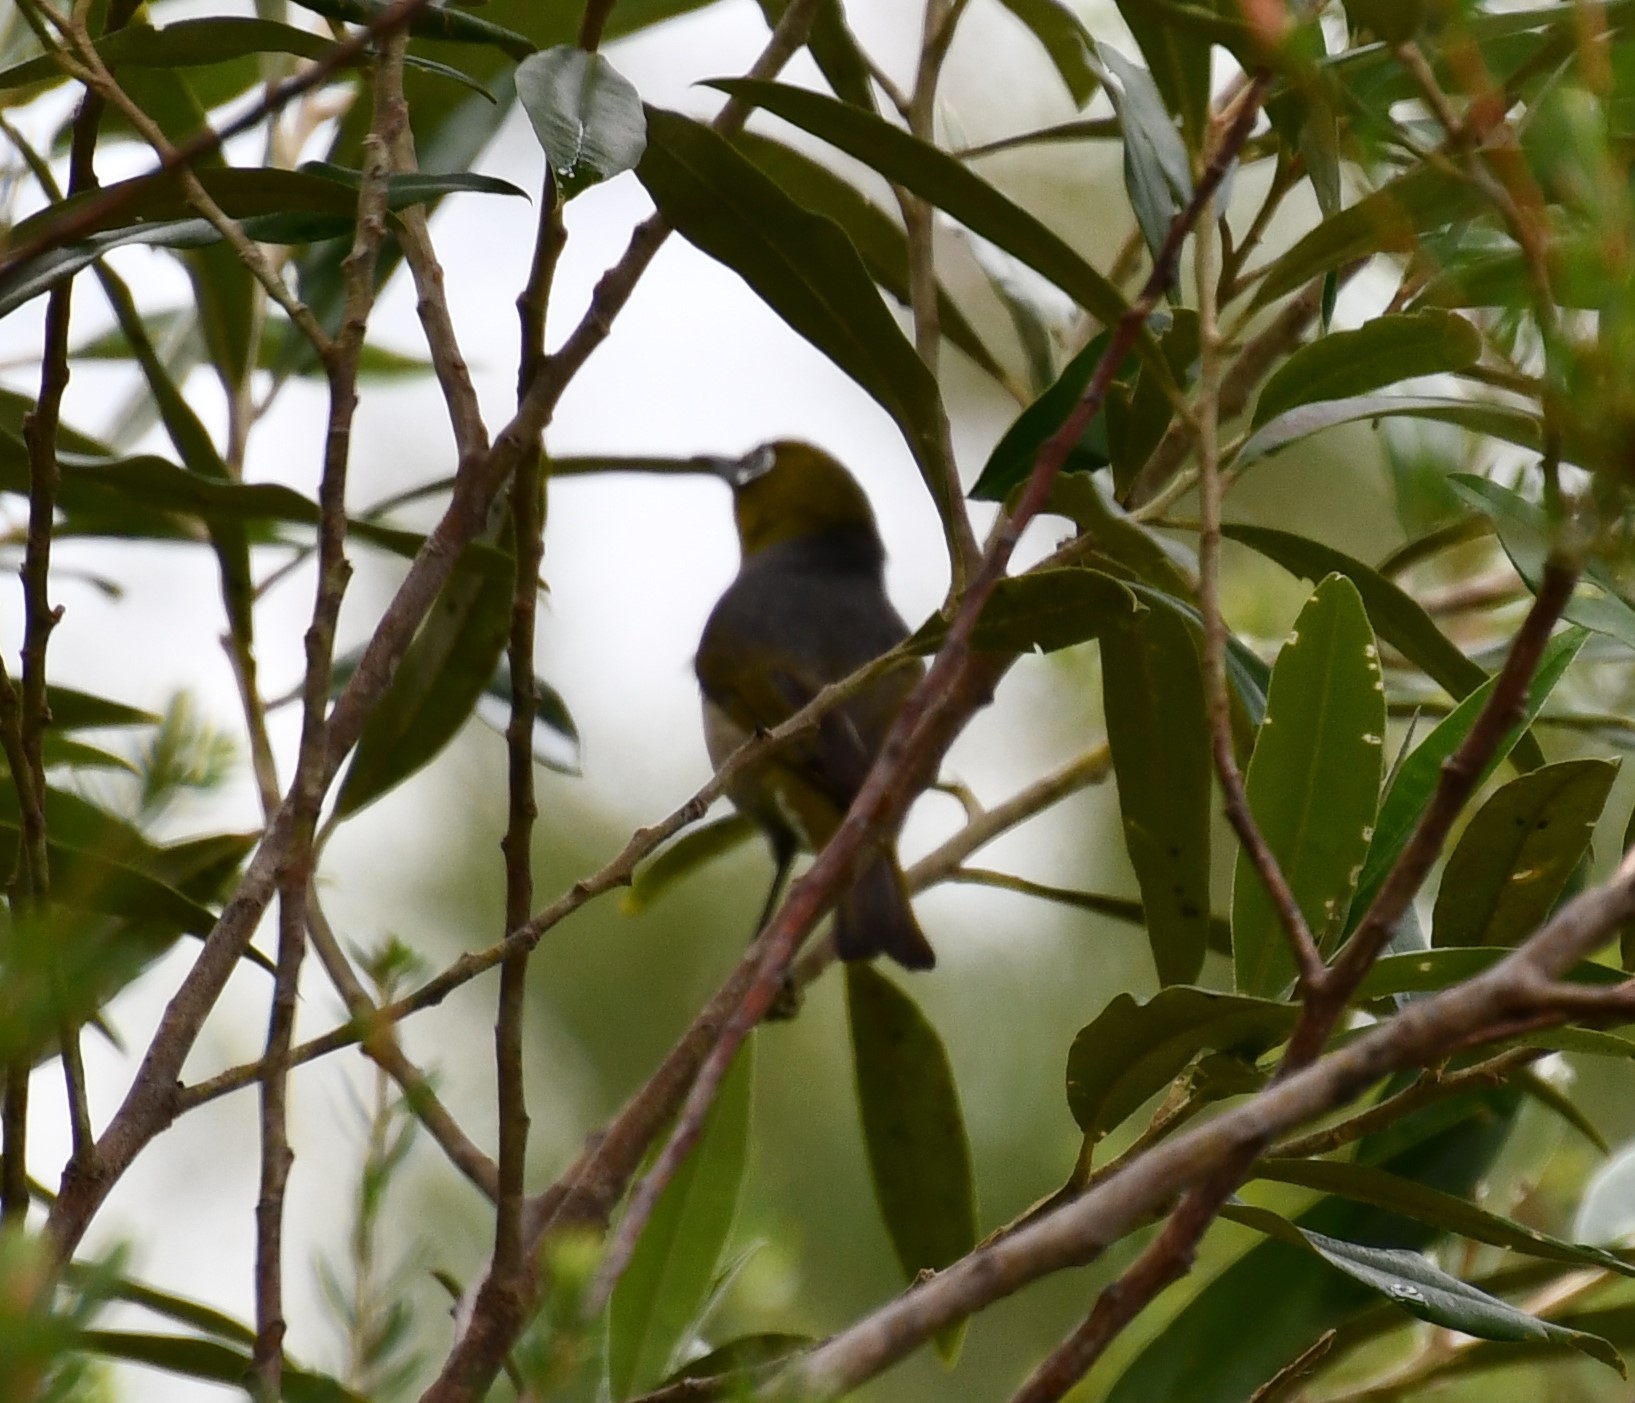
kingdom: Animalia
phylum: Chordata
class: Aves
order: Passeriformes
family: Zosteropidae
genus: Zosterops
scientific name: Zosterops lateralis
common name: Silvereye
